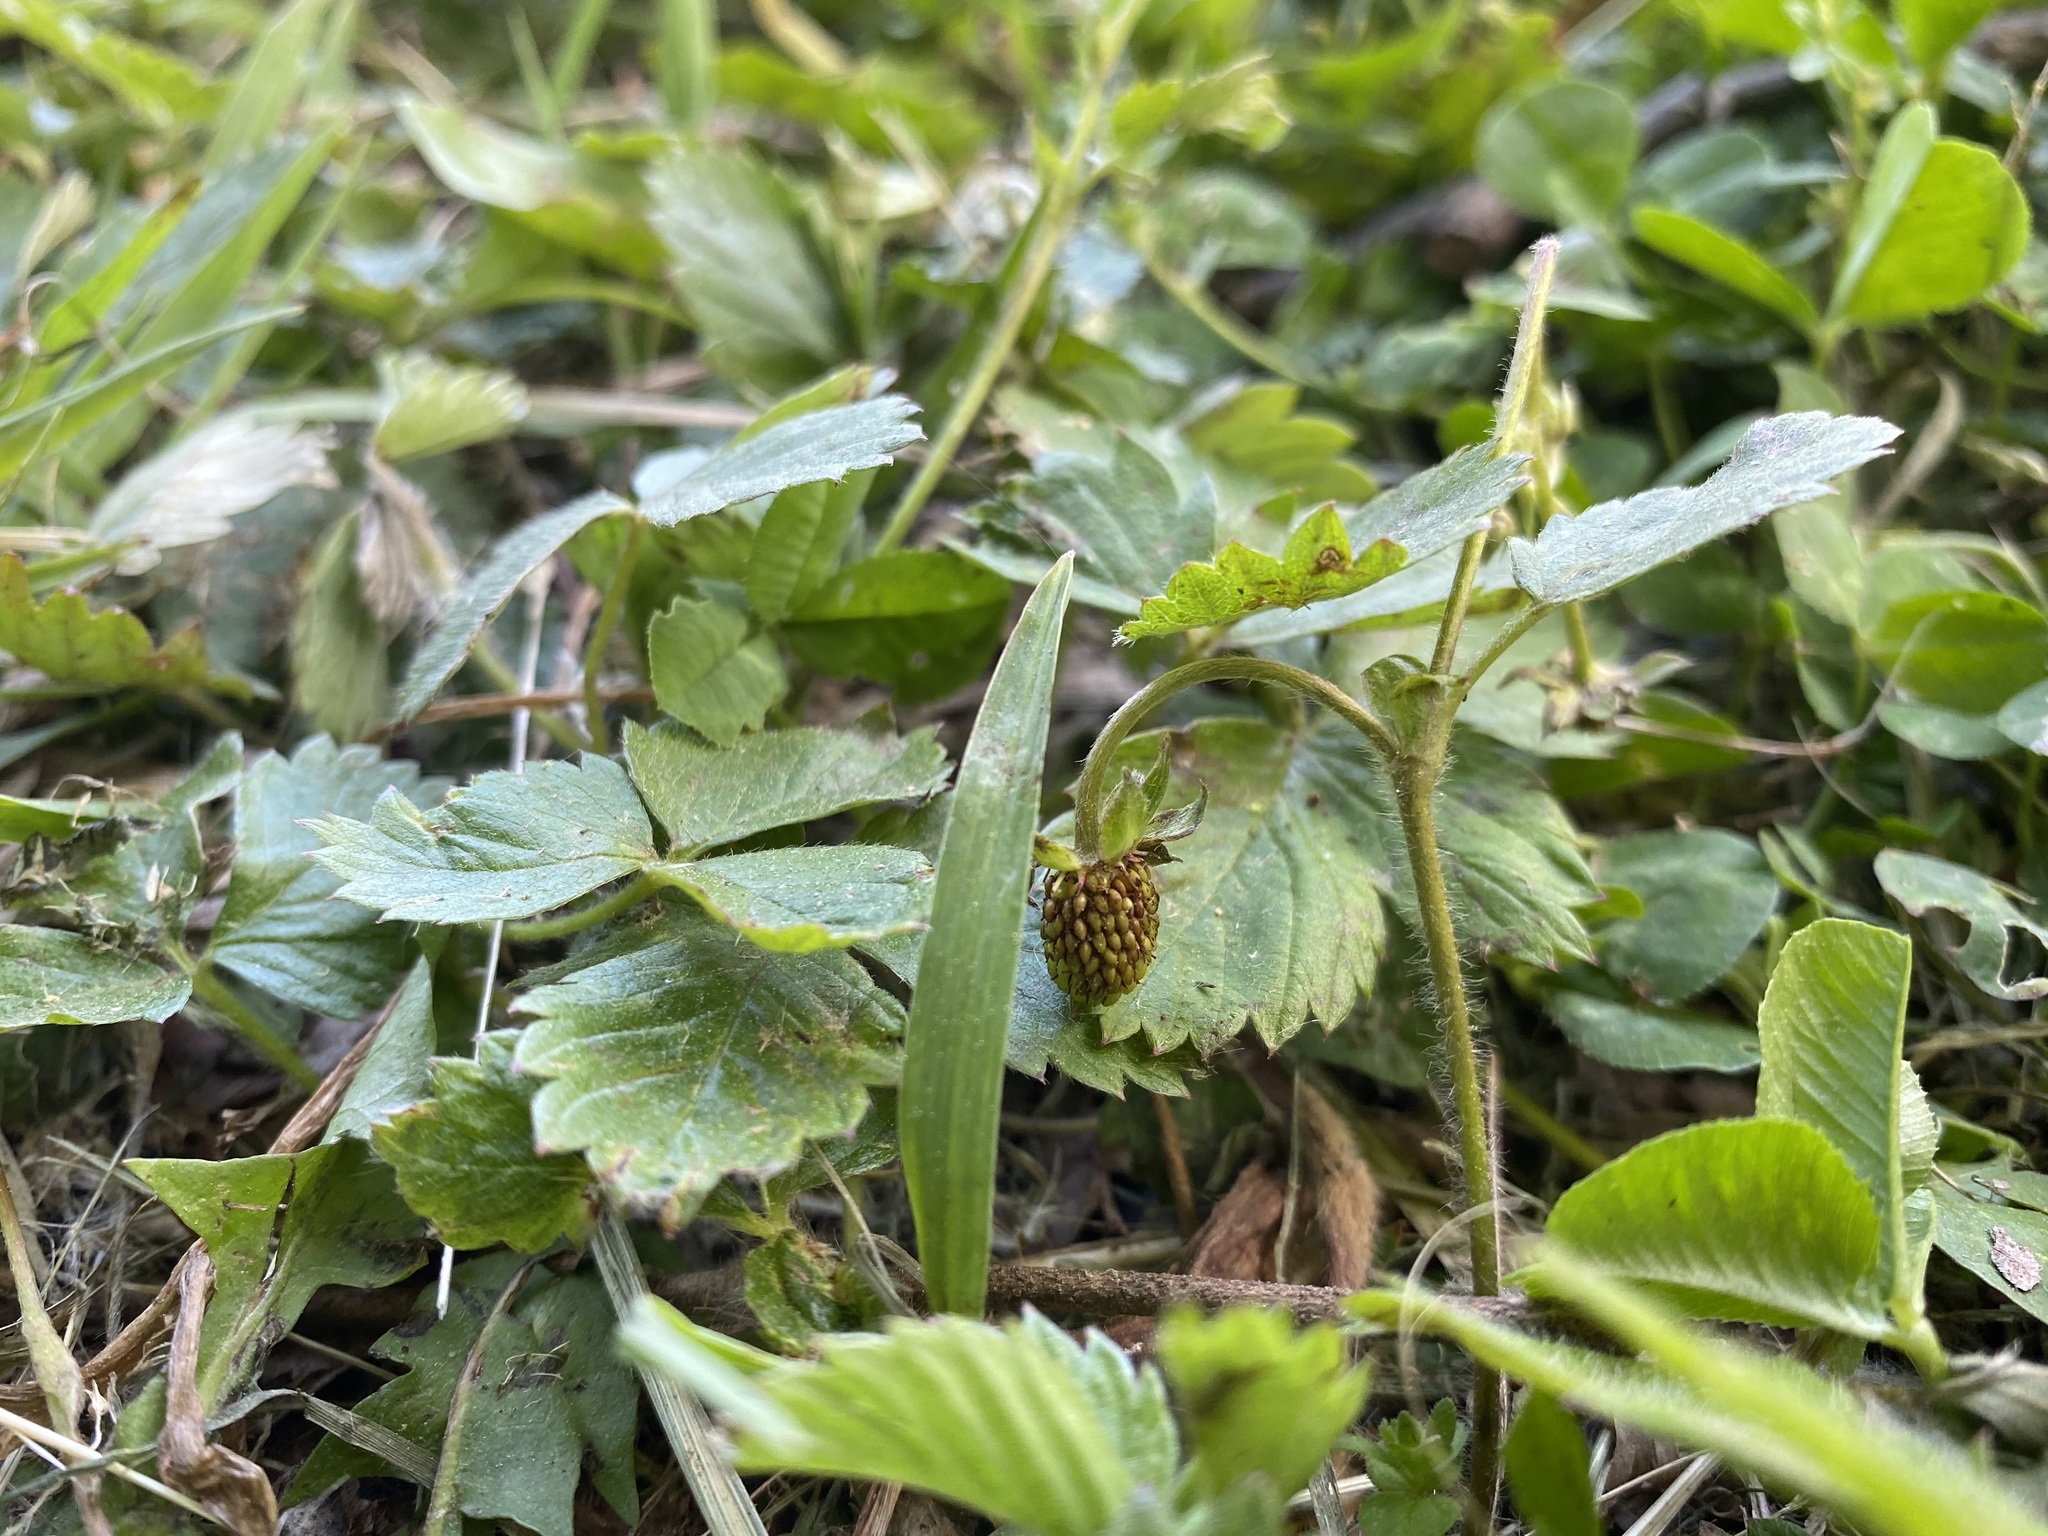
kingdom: Plantae
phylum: Tracheophyta
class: Magnoliopsida
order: Rosales
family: Rosaceae
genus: Fragaria
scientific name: Fragaria vesca
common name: Wild strawberry
